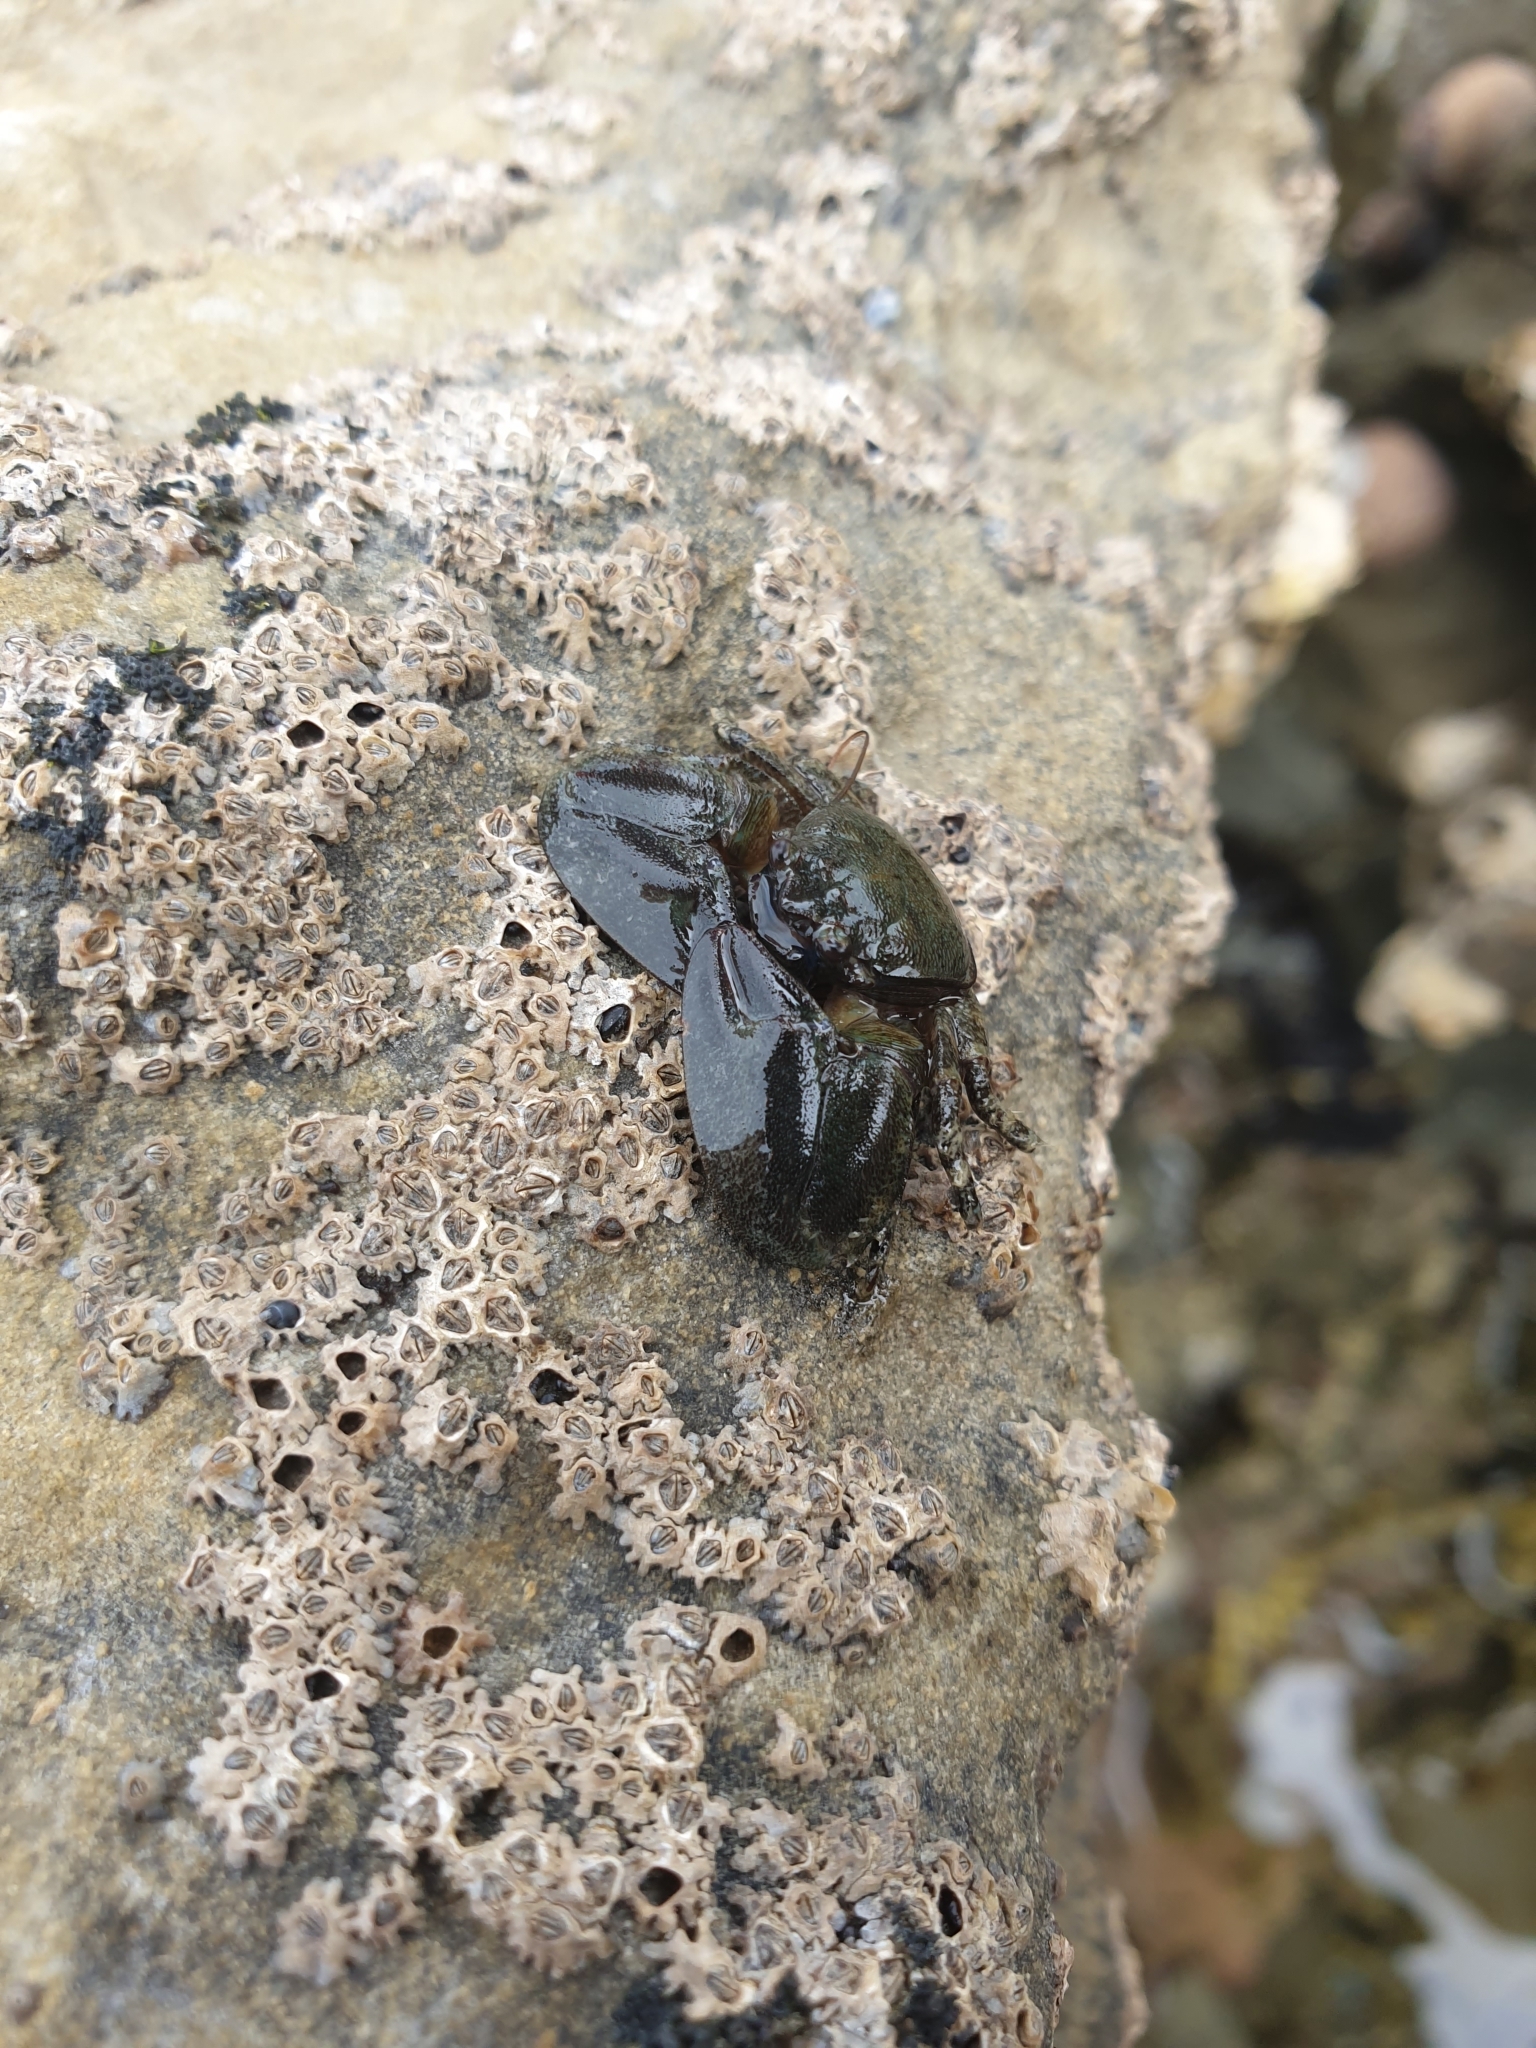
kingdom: Animalia
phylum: Arthropoda
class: Malacostraca
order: Decapoda
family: Porcellanidae
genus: Petrolisthes
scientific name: Petrolisthes elongatus
